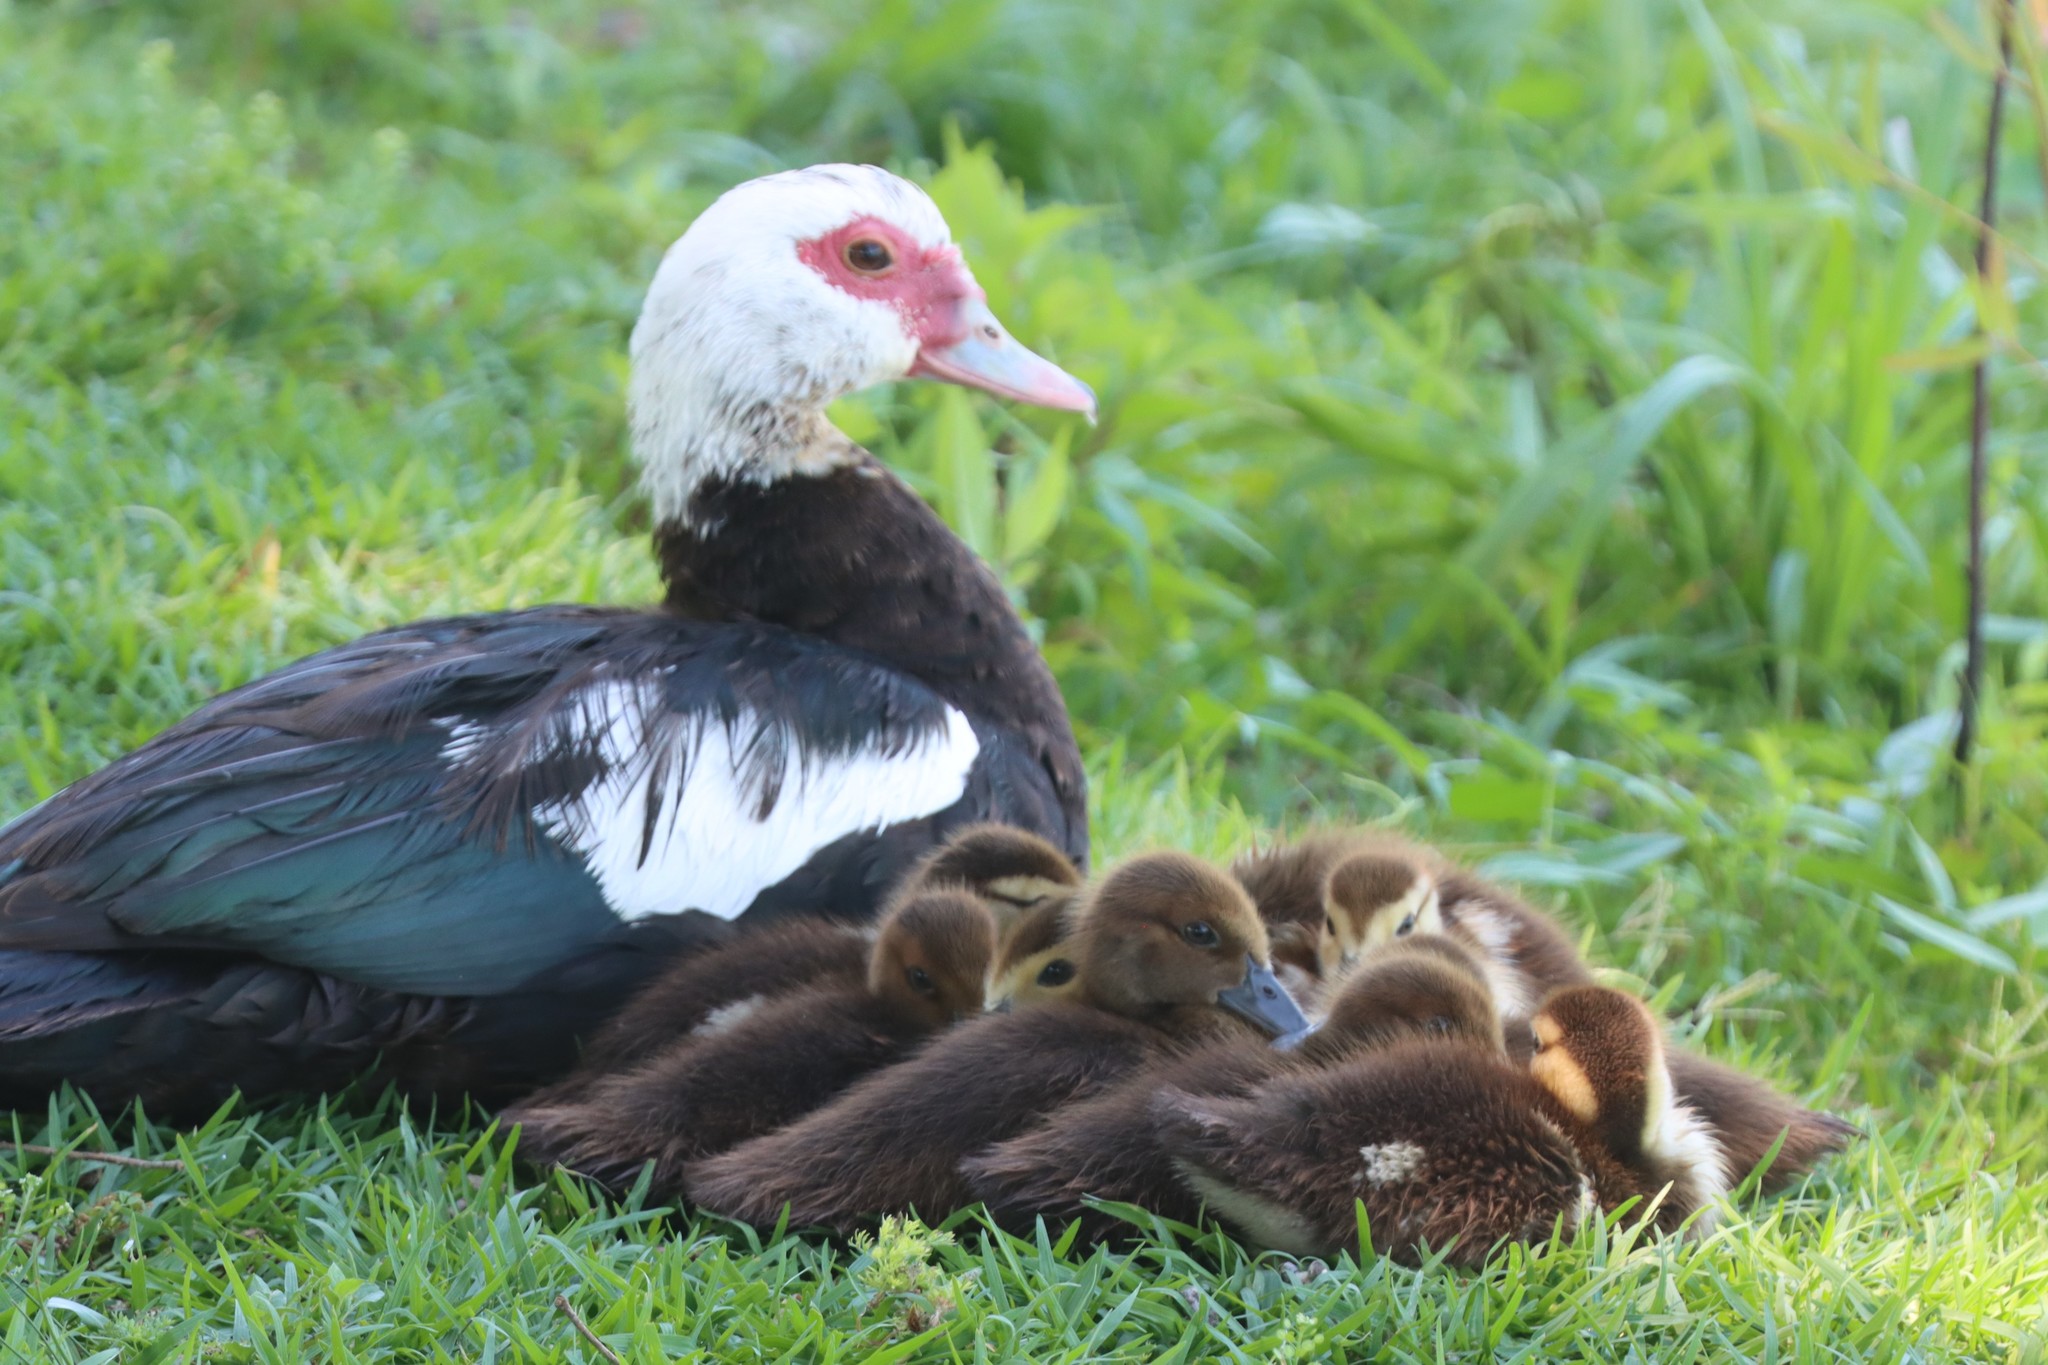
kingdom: Animalia
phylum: Chordata
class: Aves
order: Anseriformes
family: Anatidae
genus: Cairina
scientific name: Cairina moschata
